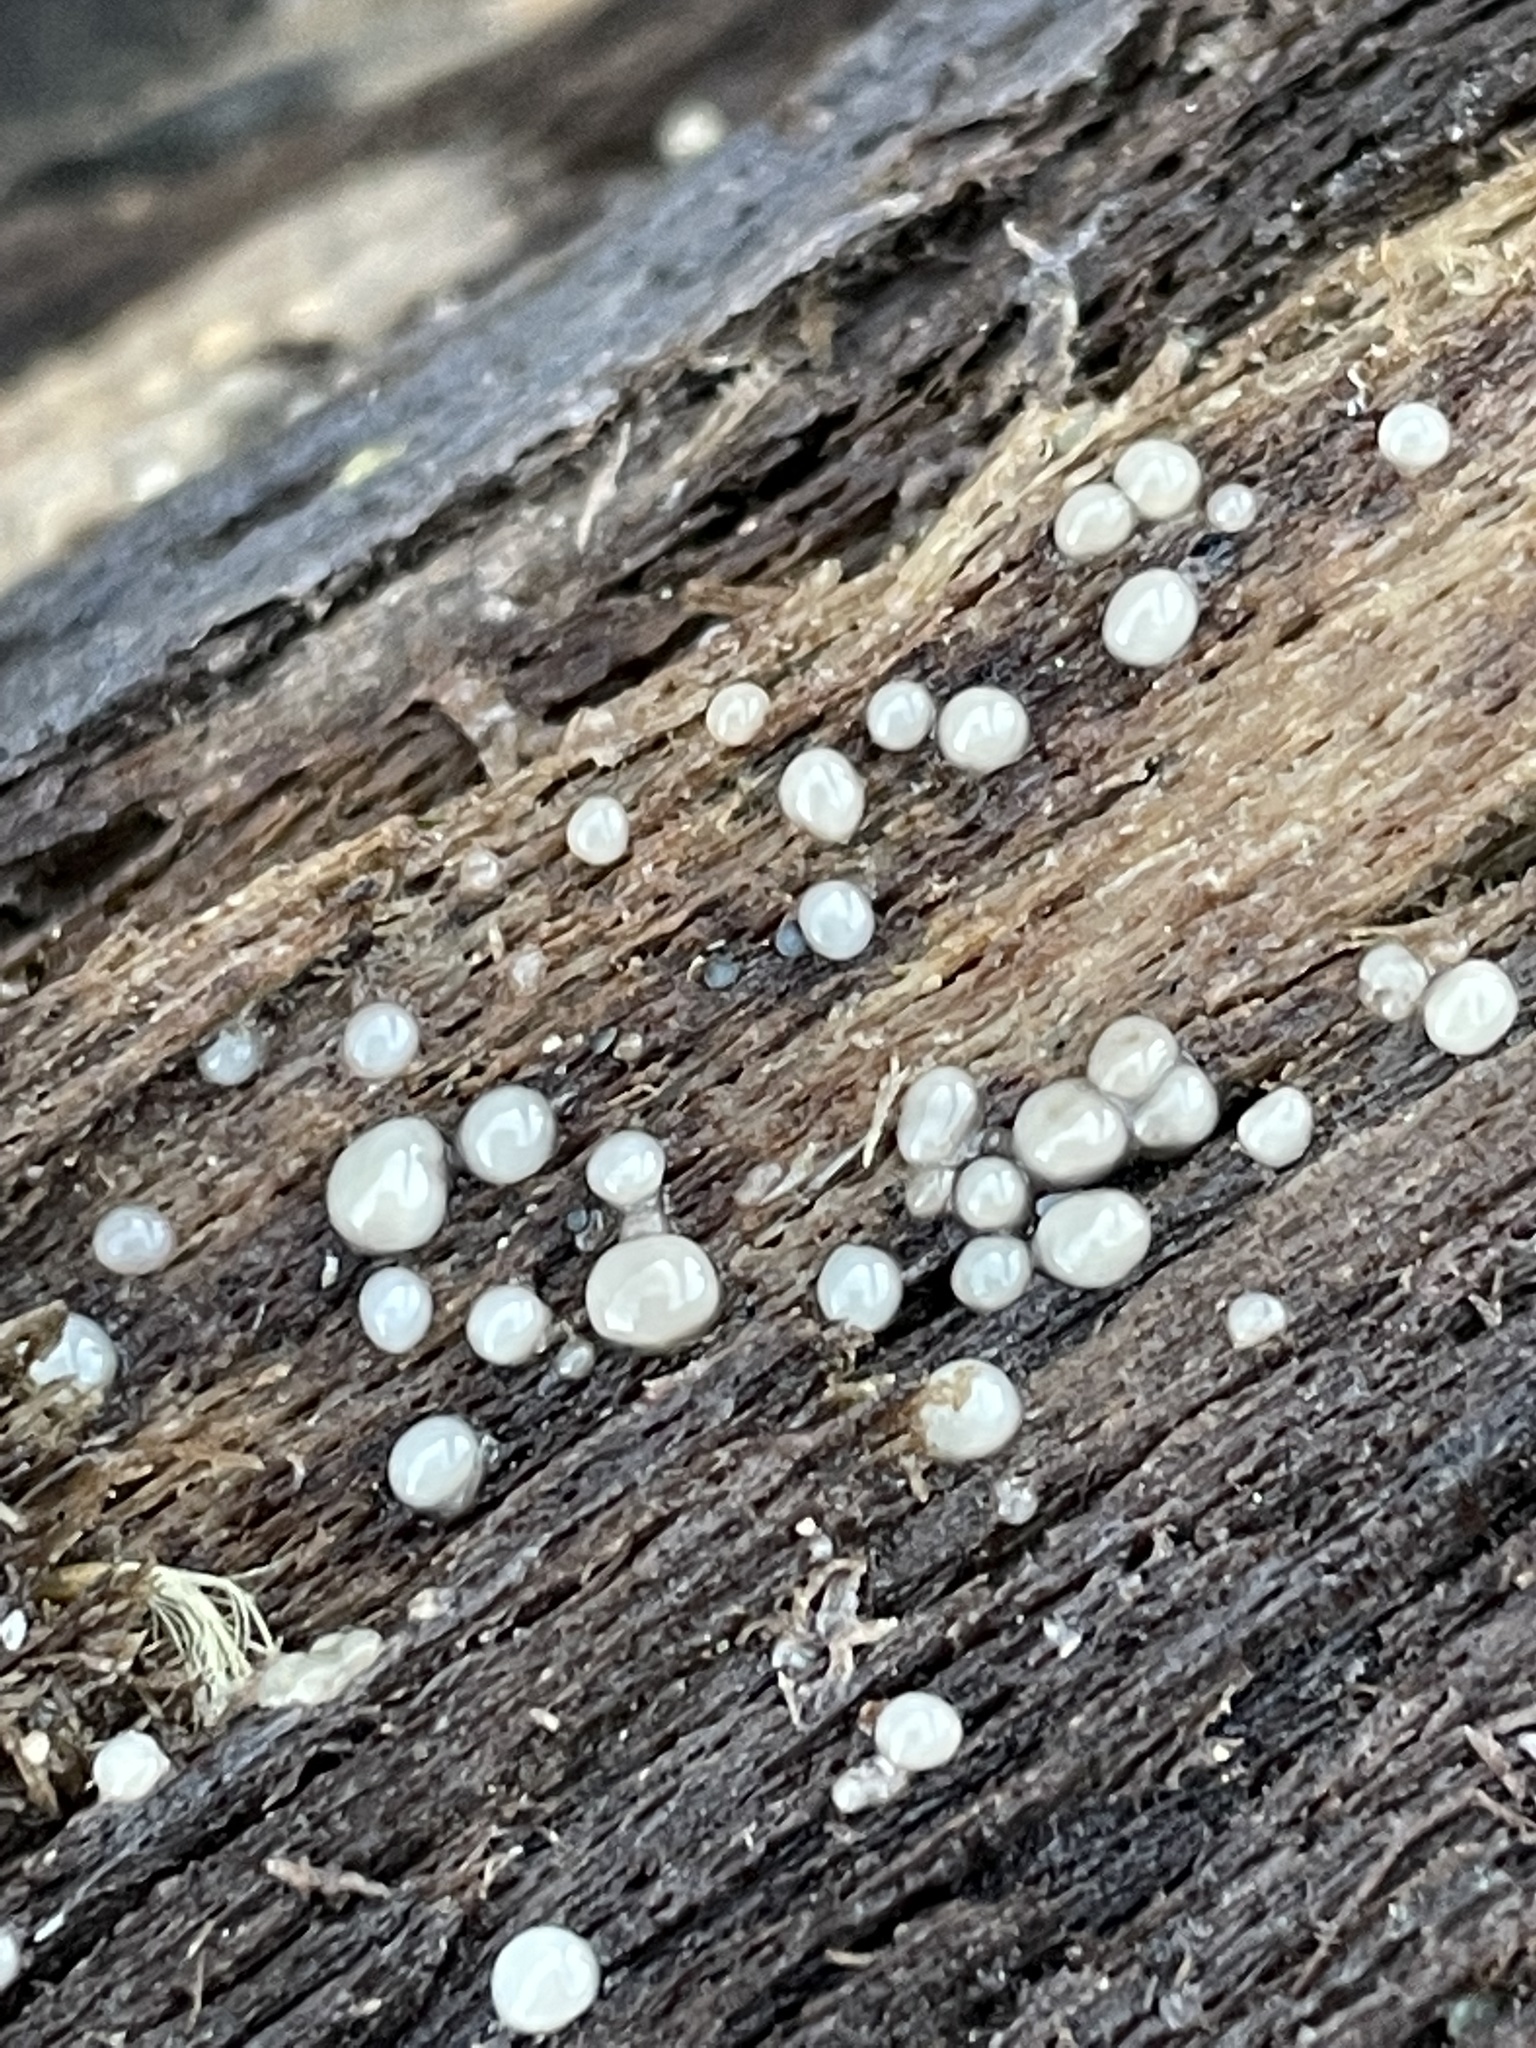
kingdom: Fungi
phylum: Basidiomycota
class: Atractiellomycetes
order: Atractiellales
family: Phleogenaceae
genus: Helicogloea
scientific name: Helicogloea compressa
